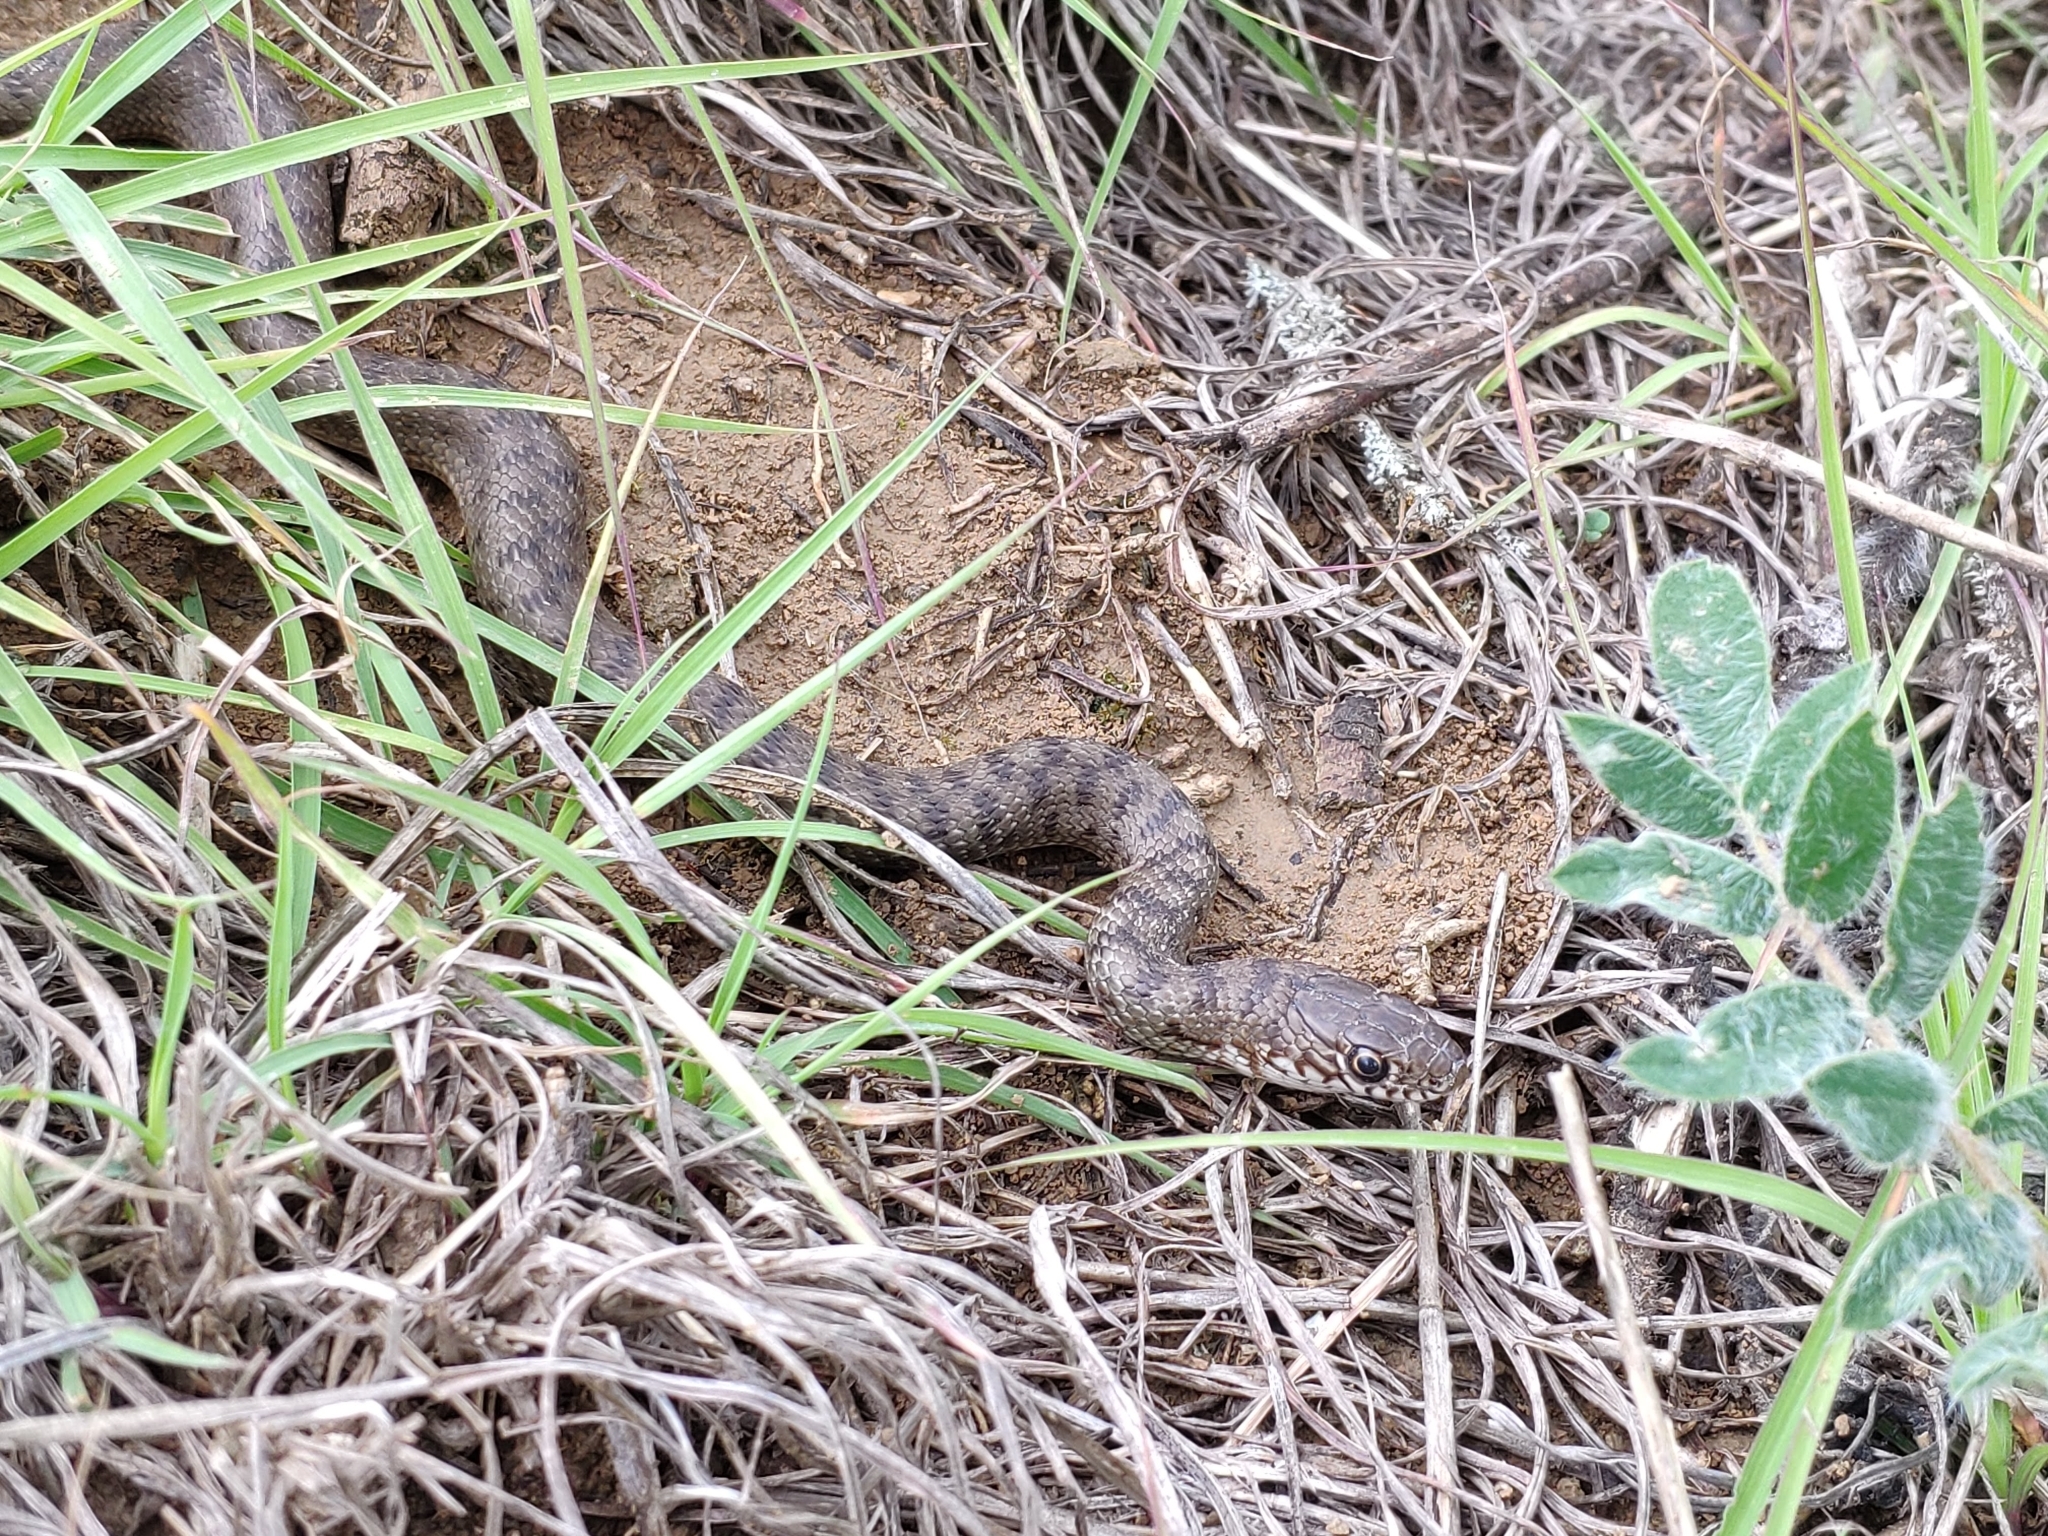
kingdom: Animalia
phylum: Chordata
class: Squamata
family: Colubridae
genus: Dolichophis
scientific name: Dolichophis caspius
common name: Large whip snake
